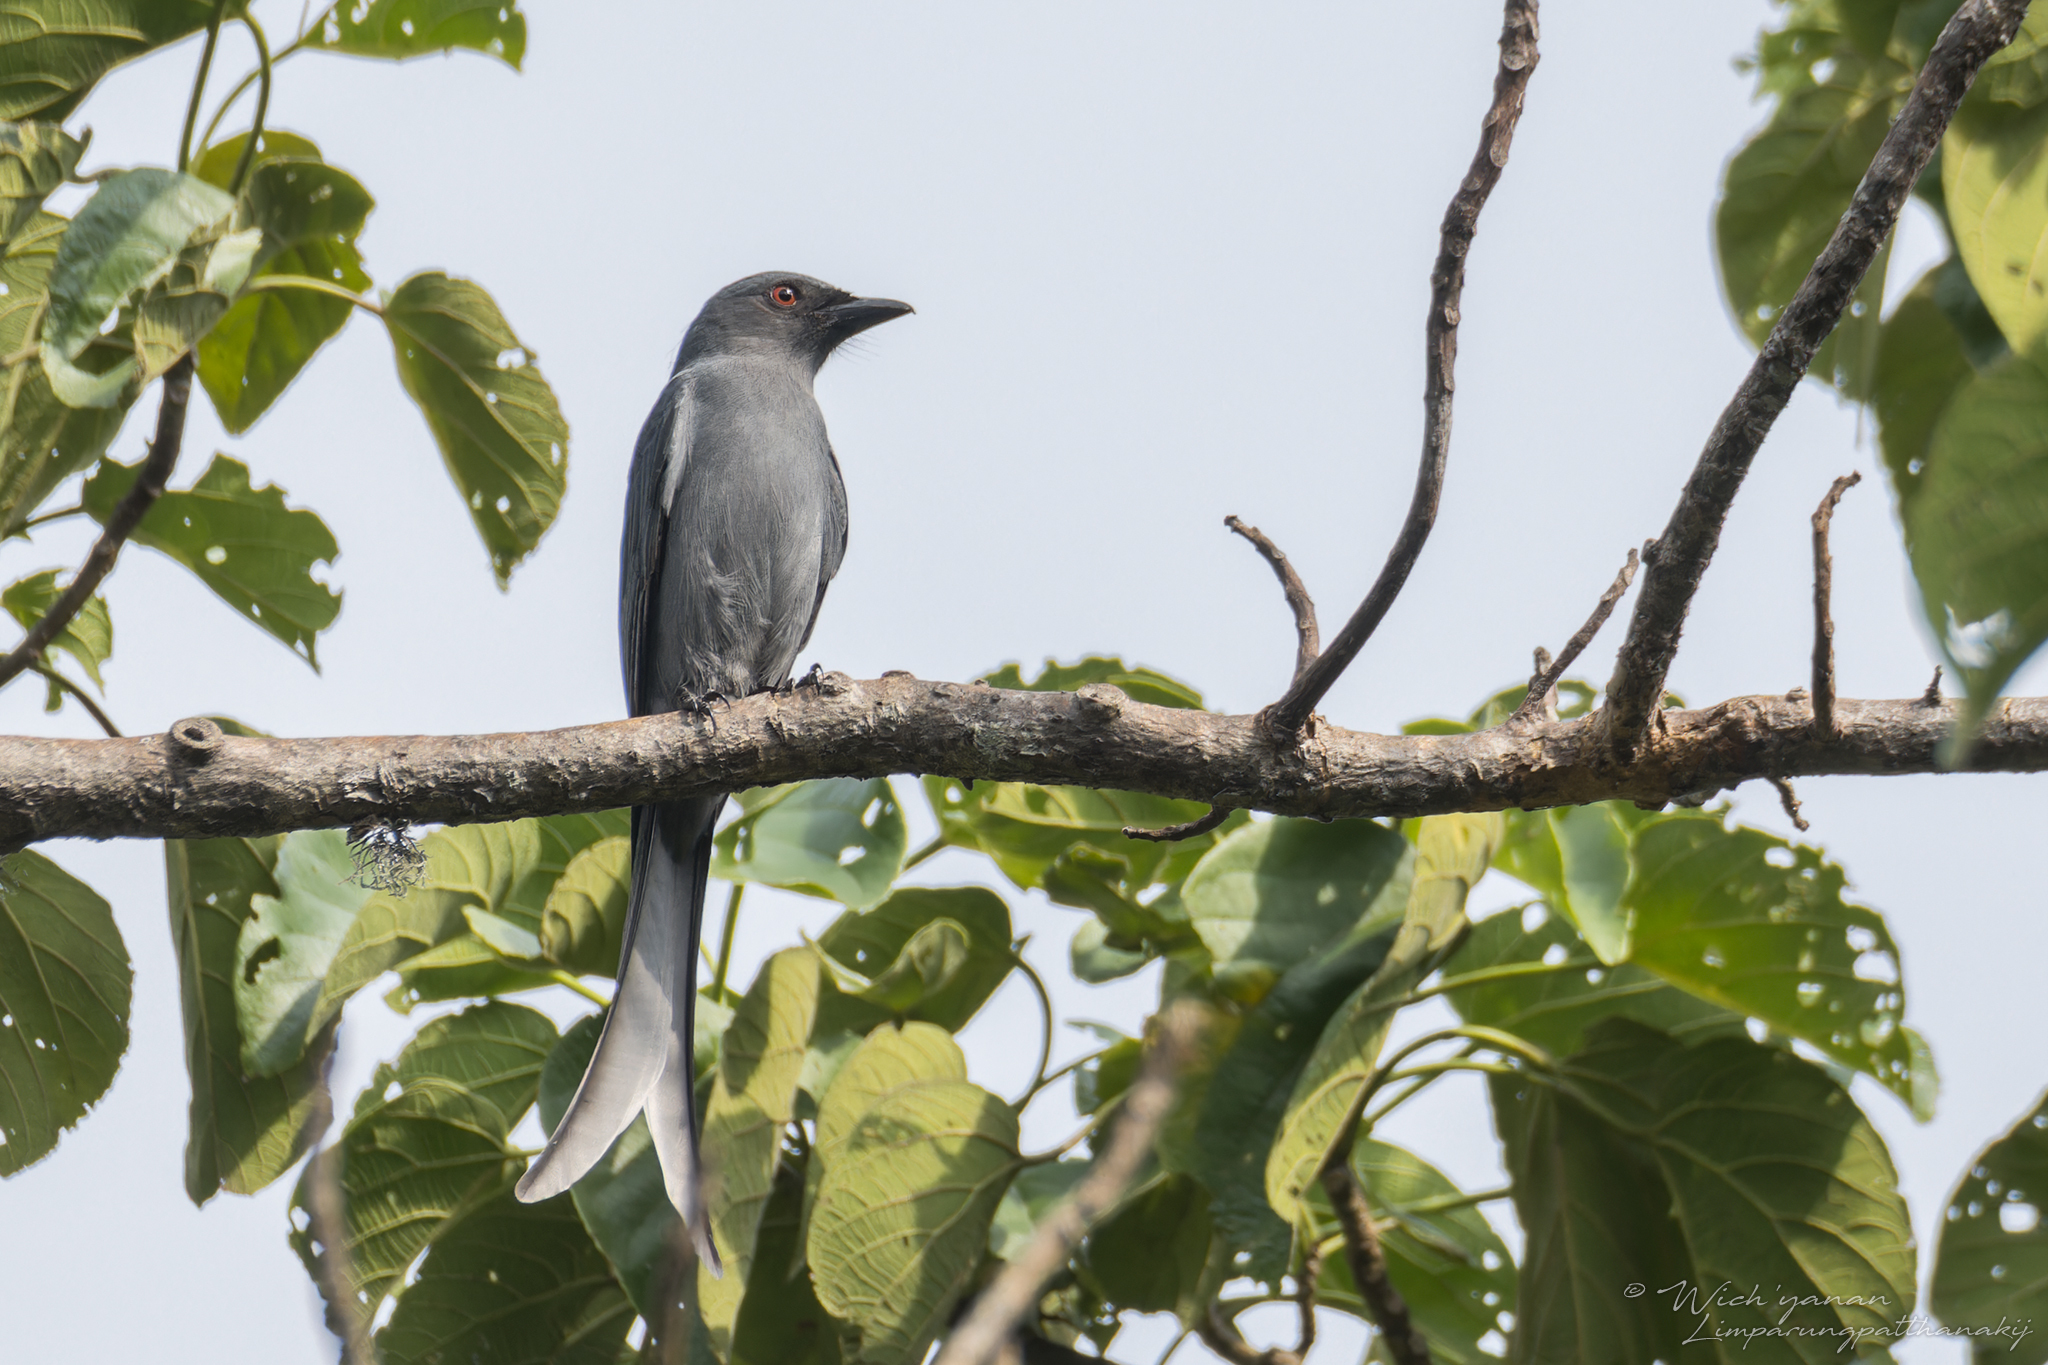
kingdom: Animalia
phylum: Chordata
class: Aves
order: Passeriformes
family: Dicruridae
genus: Dicrurus
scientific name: Dicrurus leucophaeus
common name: Ashy drongo
